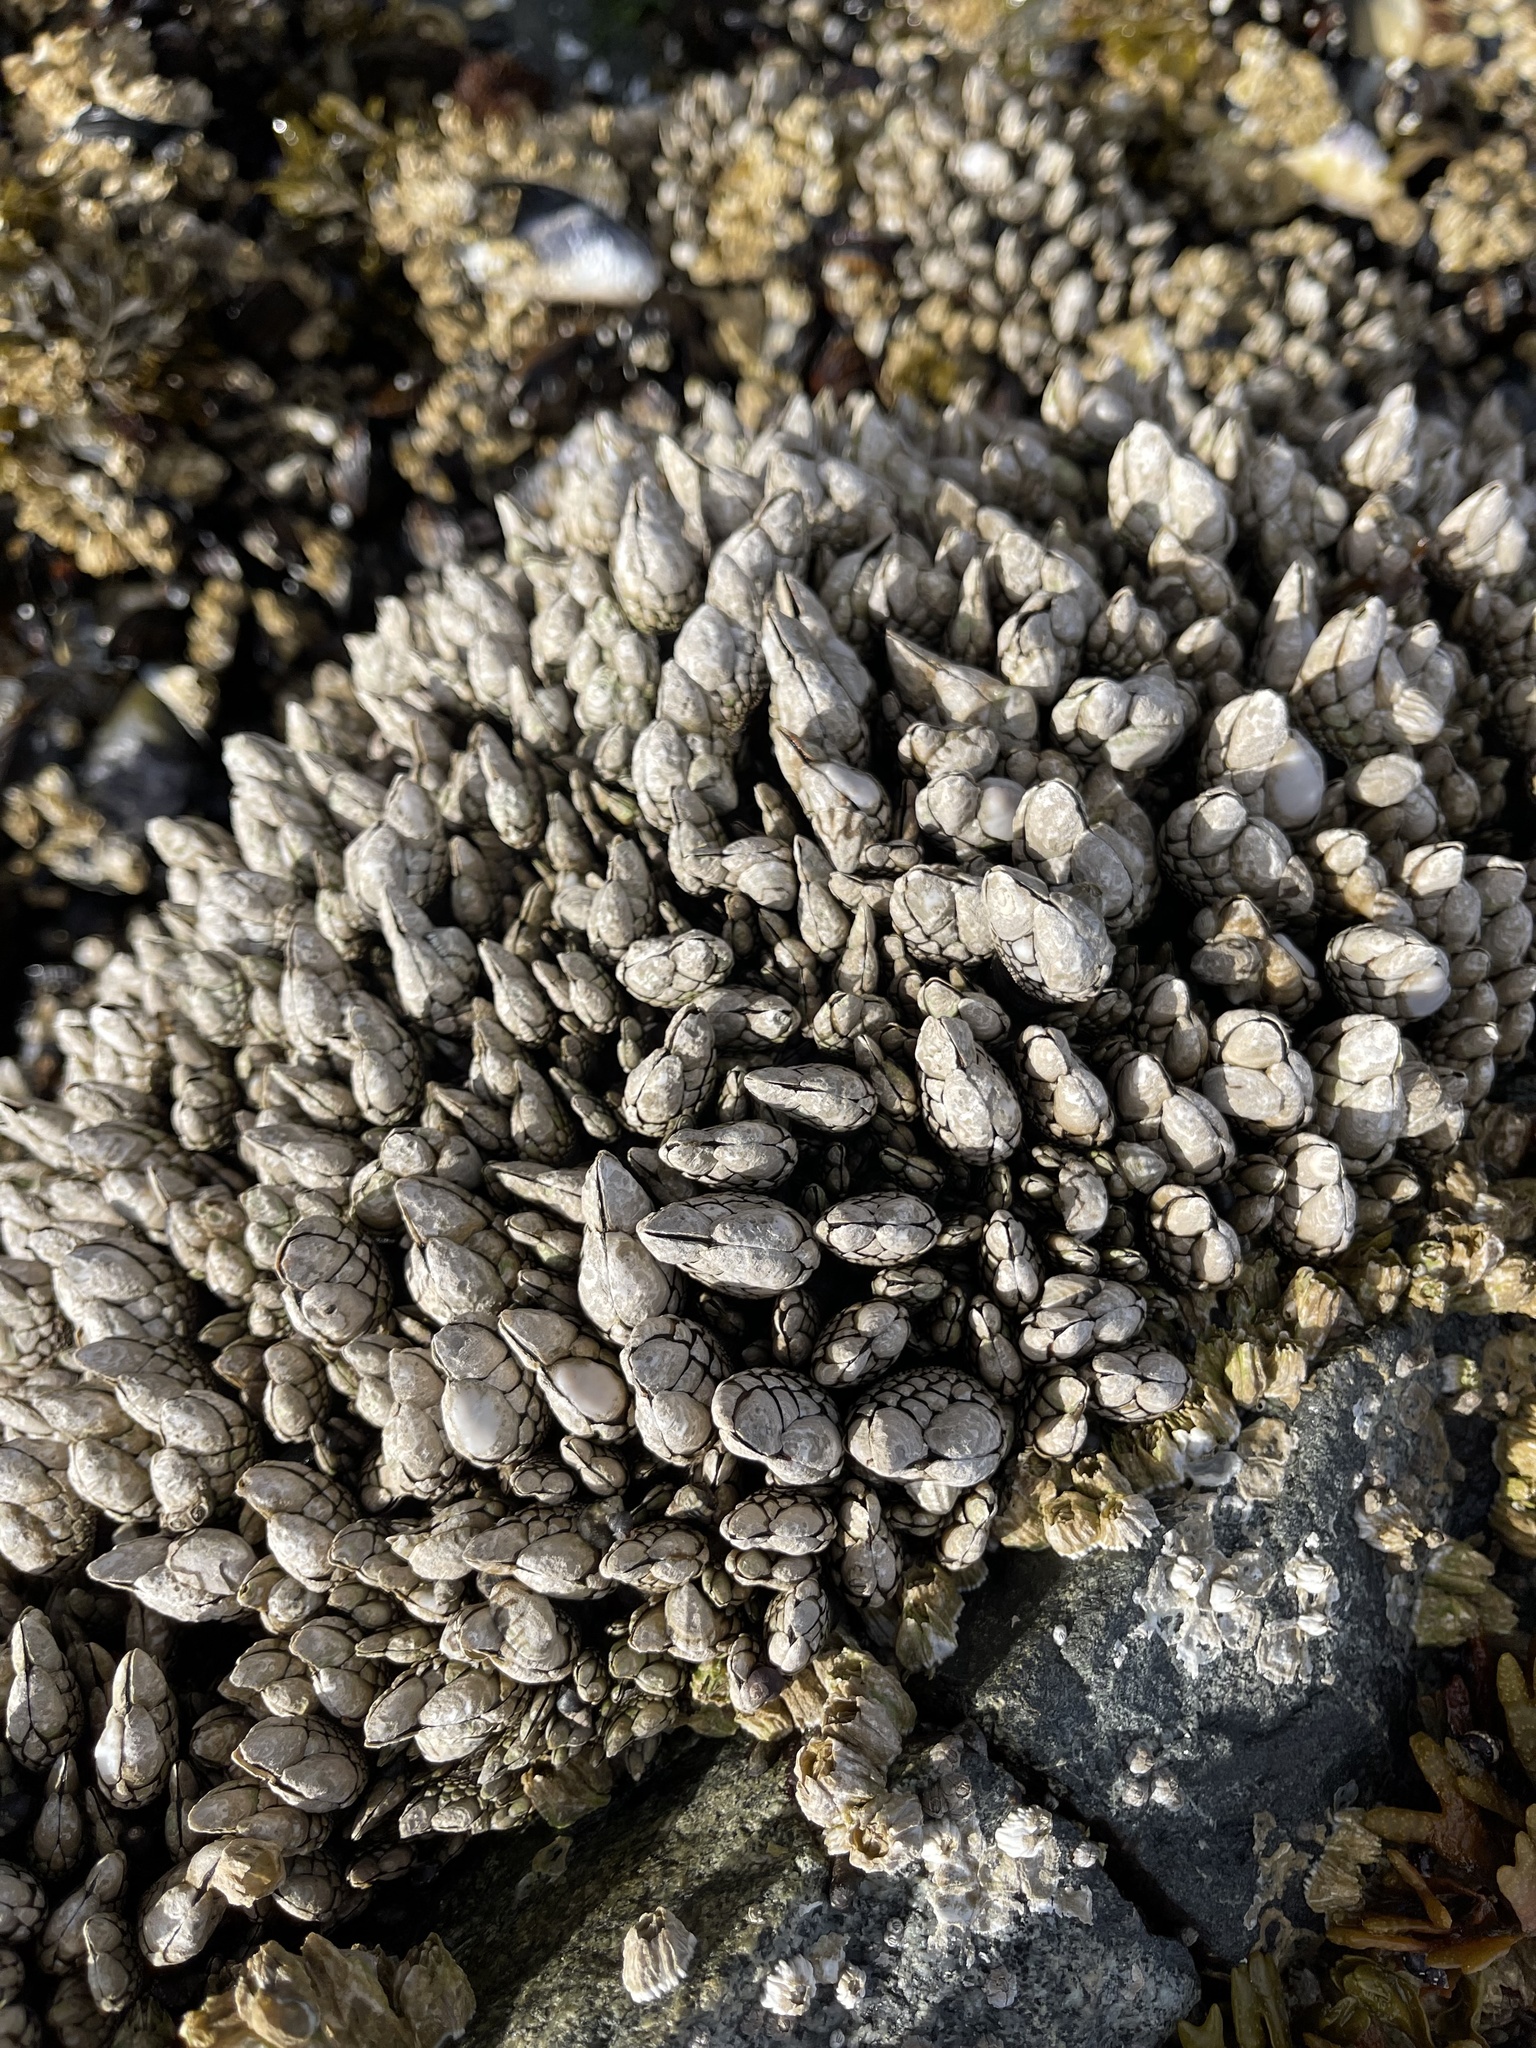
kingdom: Animalia
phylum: Arthropoda
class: Maxillopoda
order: Pedunculata
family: Pollicipedidae
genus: Pollicipes
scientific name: Pollicipes polymerus
